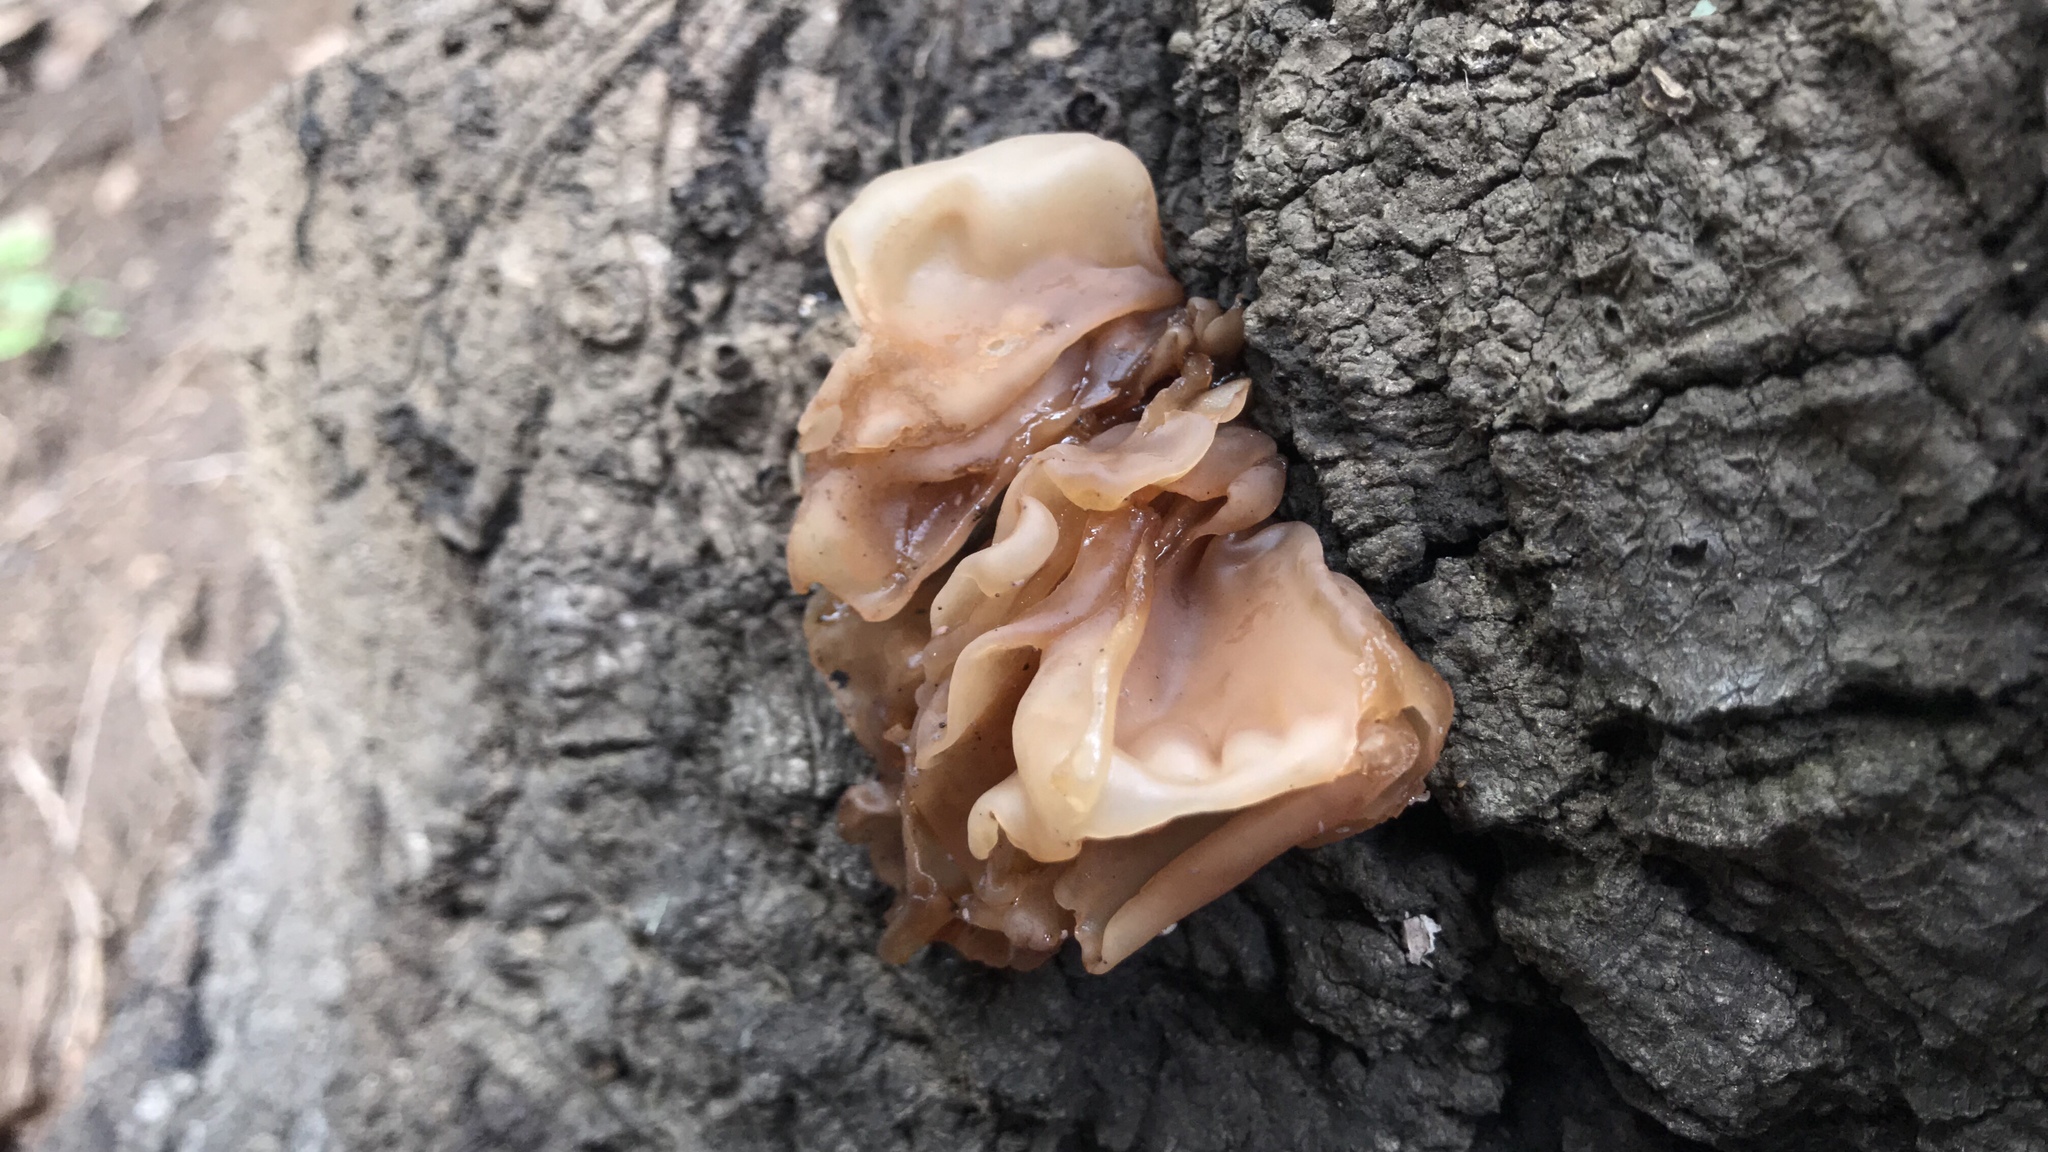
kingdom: Fungi
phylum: Basidiomycota
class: Tremellomycetes
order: Tremellales
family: Tremellaceae
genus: Phaeotremella
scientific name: Phaeotremella frondosa
